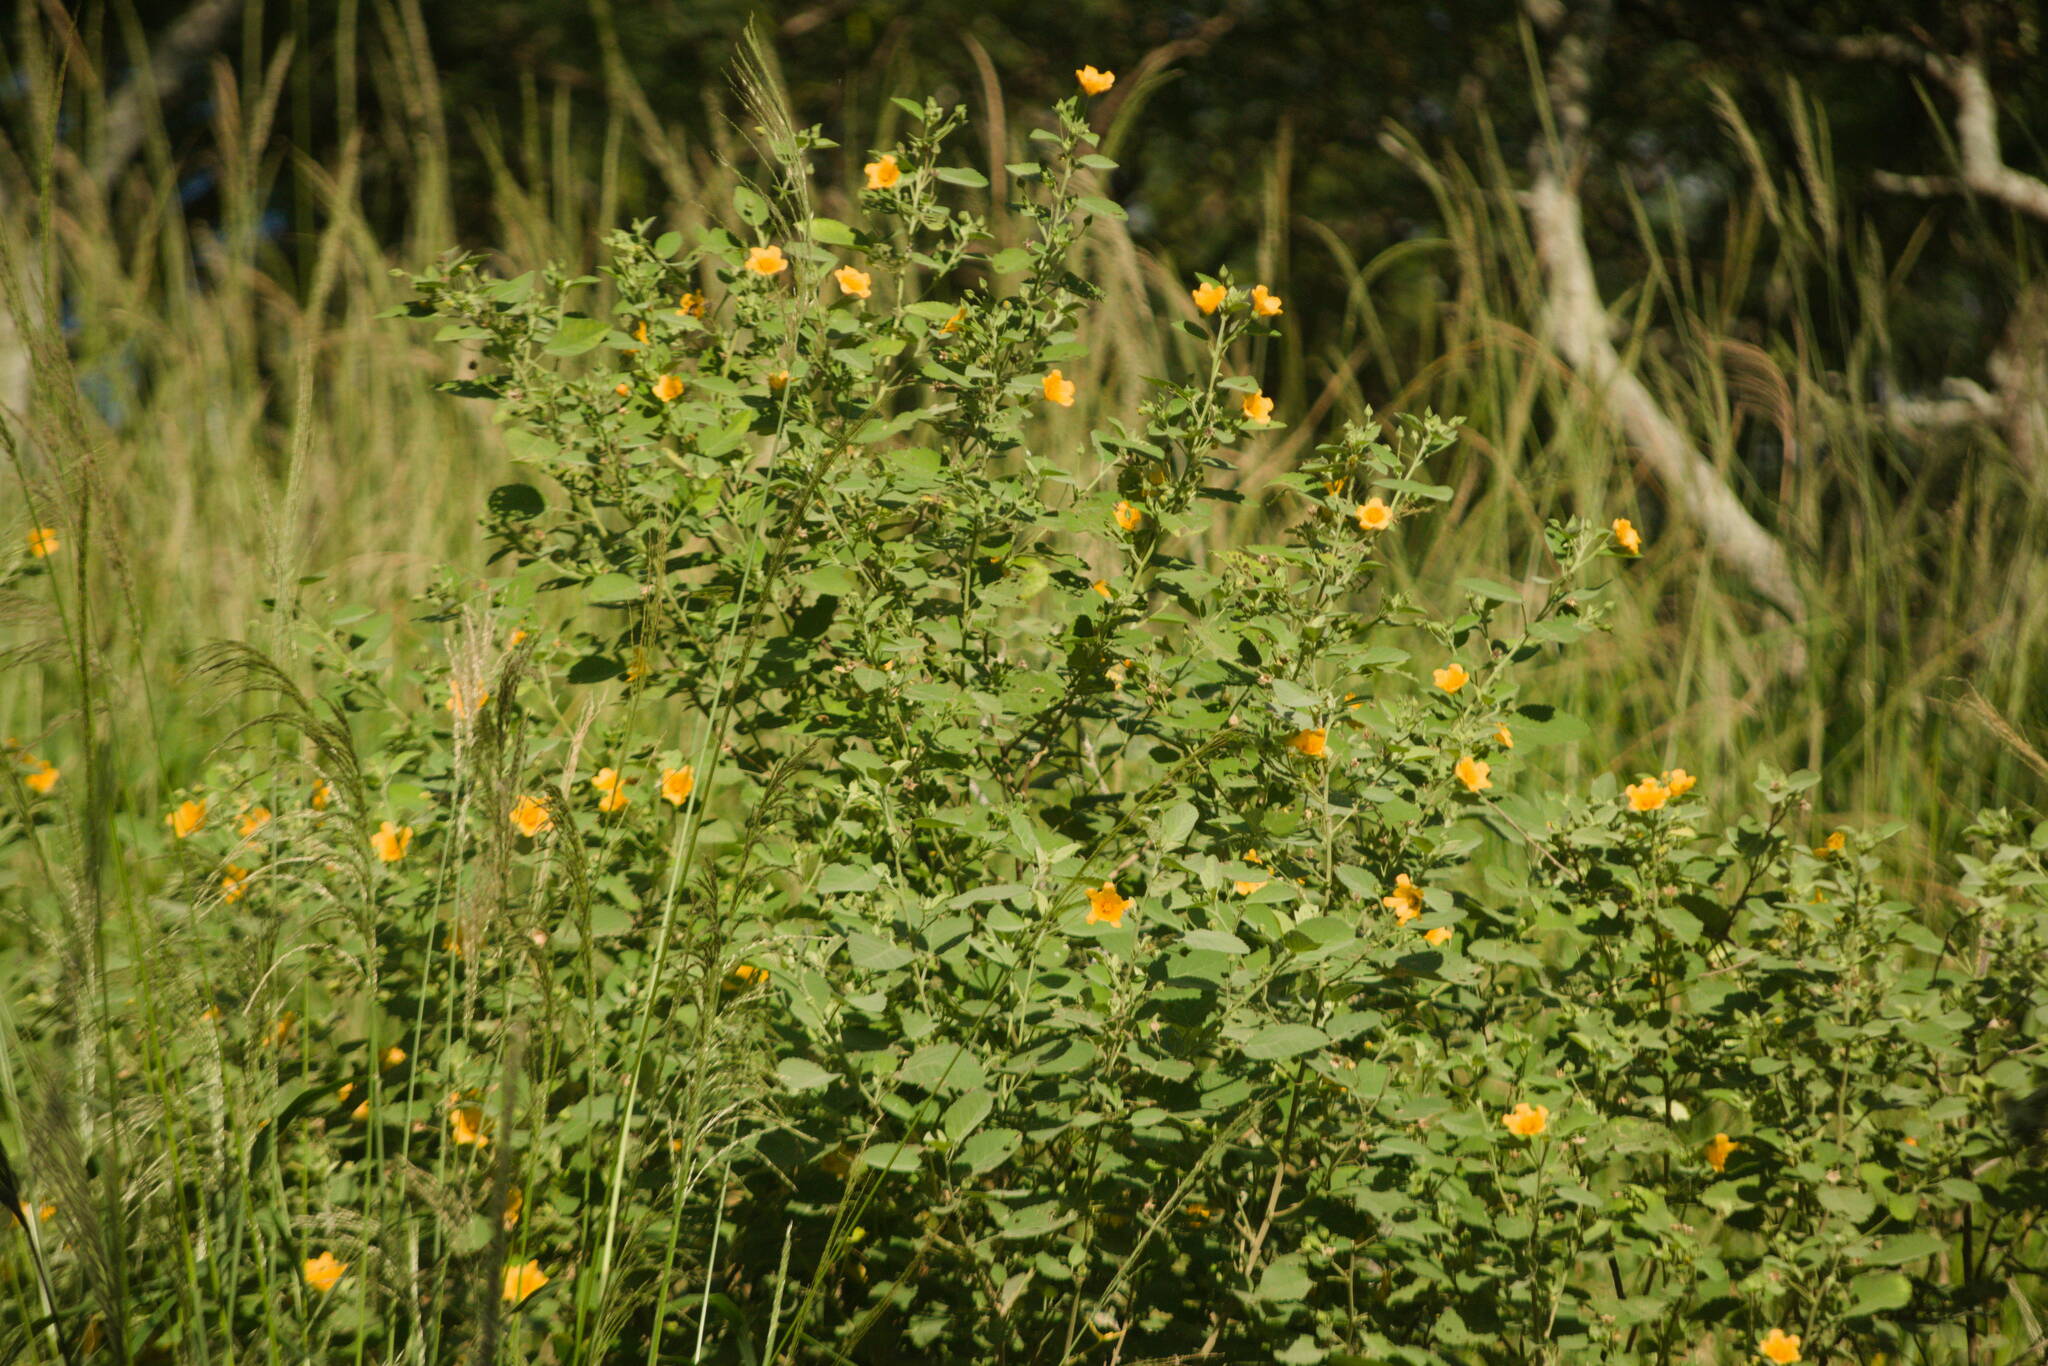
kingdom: Plantae
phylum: Tracheophyta
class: Magnoliopsida
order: Malvales
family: Malvaceae
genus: Sida
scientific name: Sida fallax
